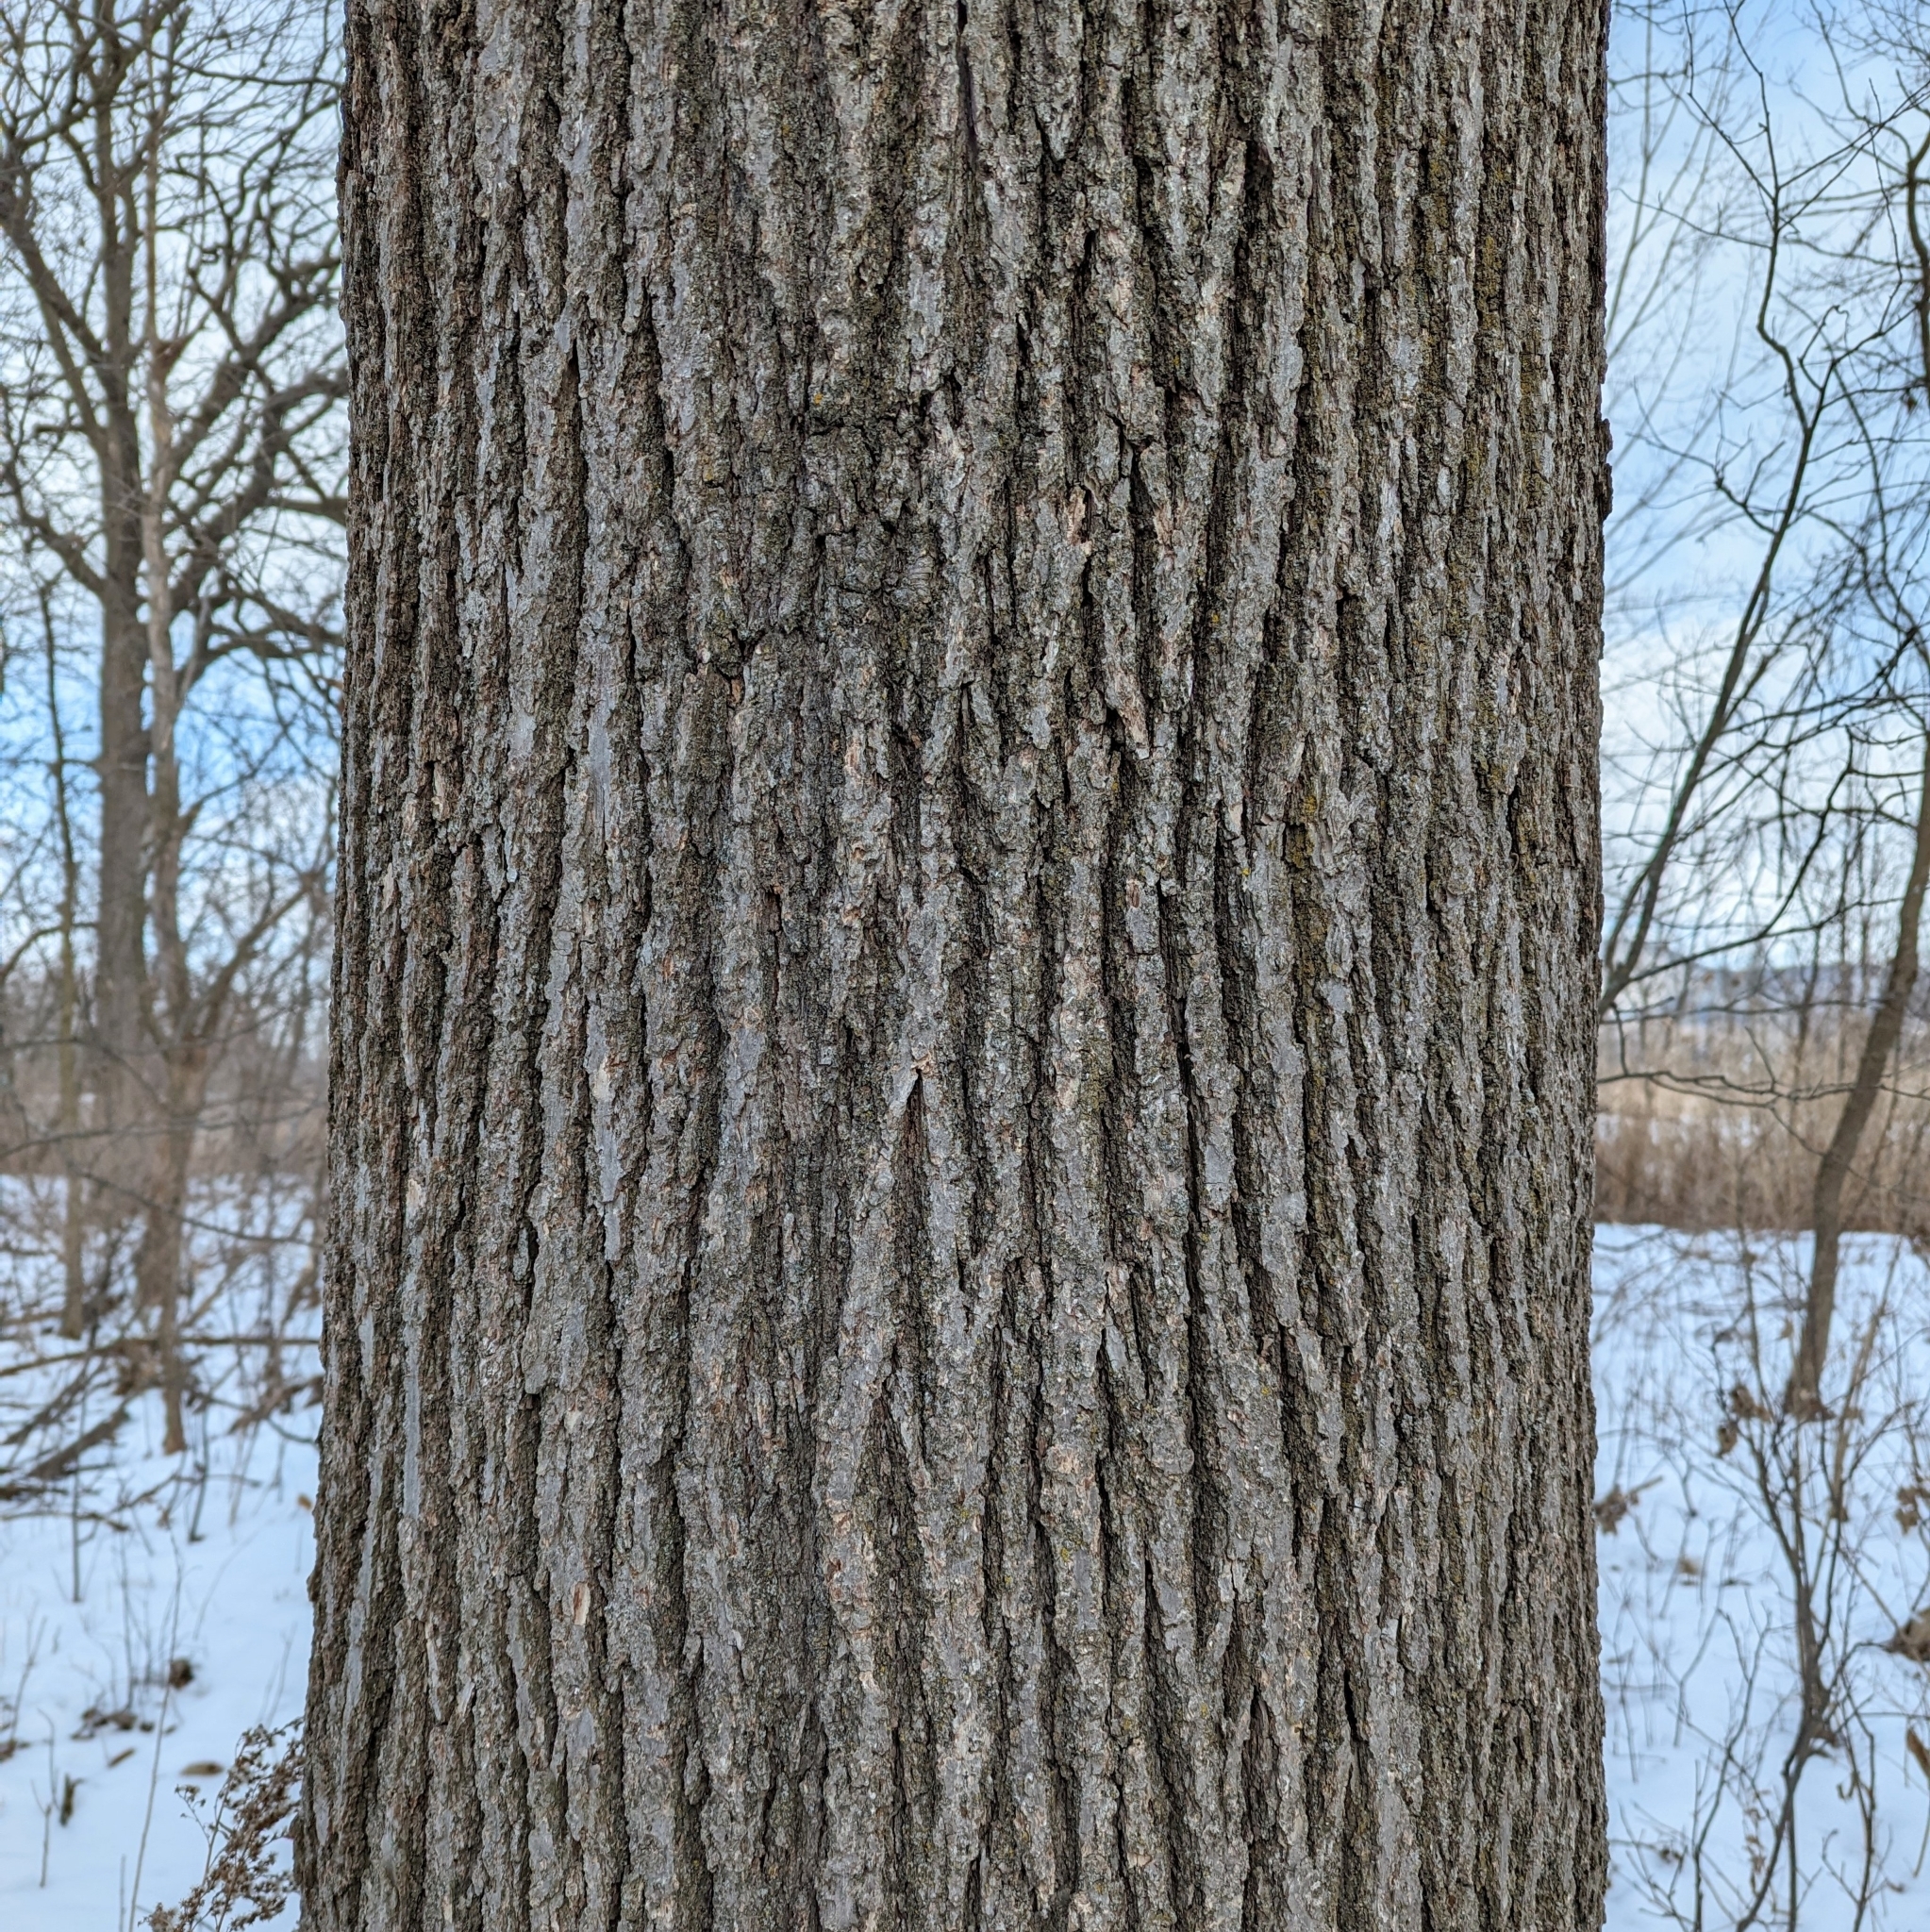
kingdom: Plantae
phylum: Tracheophyta
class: Magnoliopsida
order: Fagales
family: Fagaceae
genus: Quercus
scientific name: Quercus macrocarpa
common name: Bur oak
